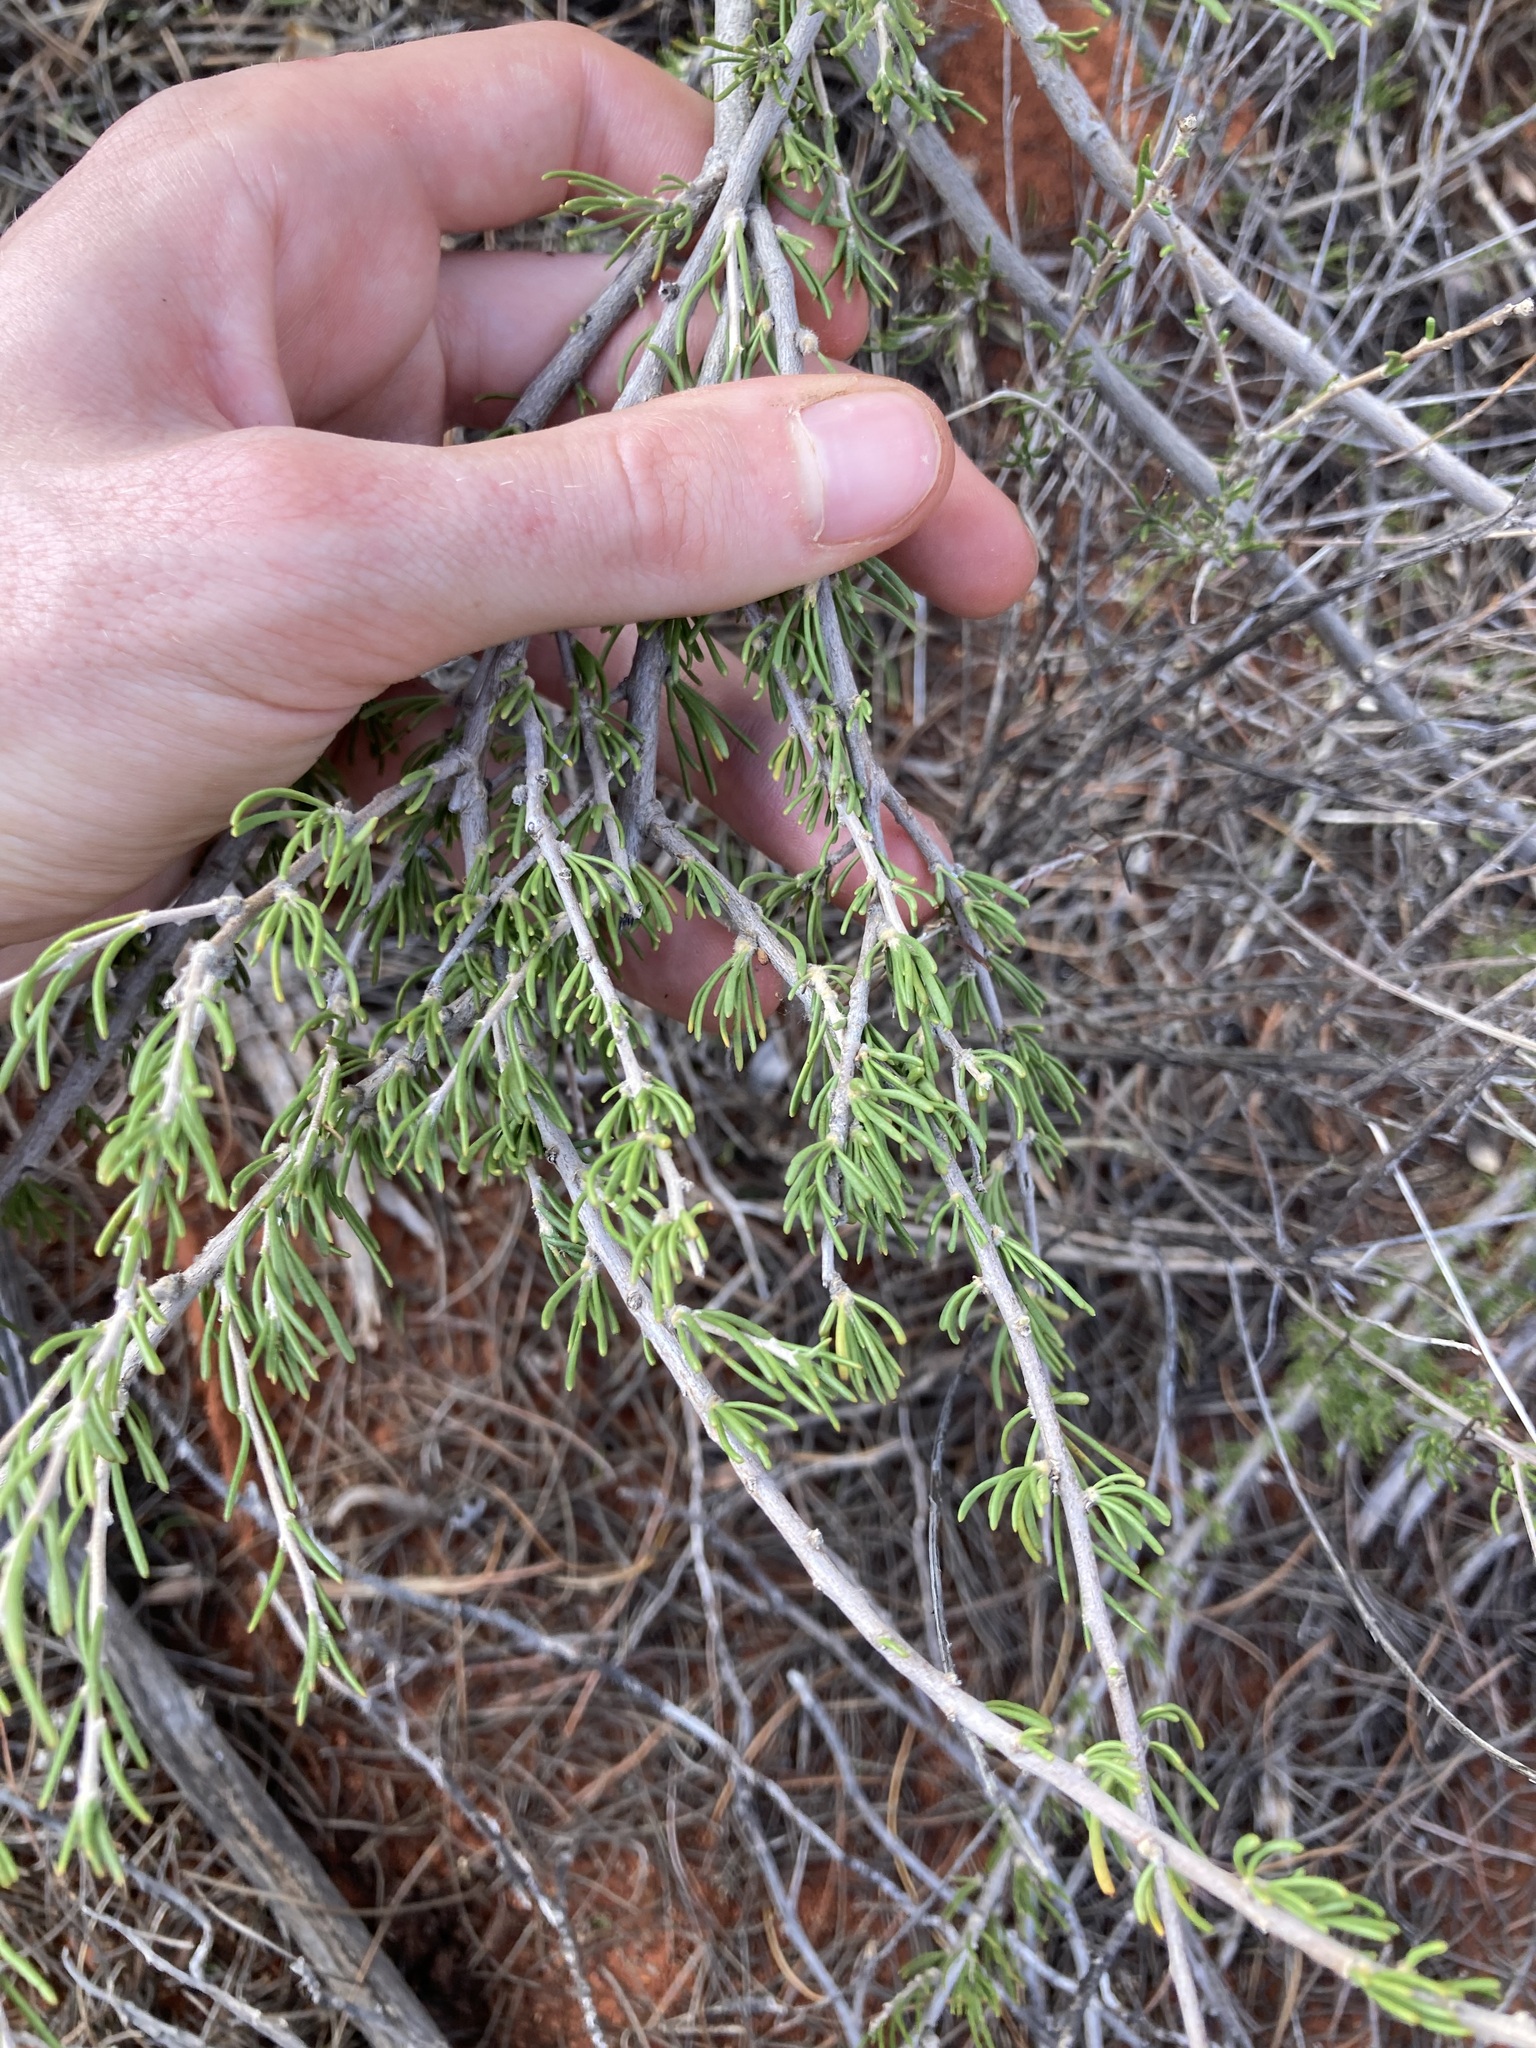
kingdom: Plantae
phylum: Tracheophyta
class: Magnoliopsida
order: Asterales
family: Goodeniaceae
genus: Scaevola
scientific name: Scaevola spinescens
